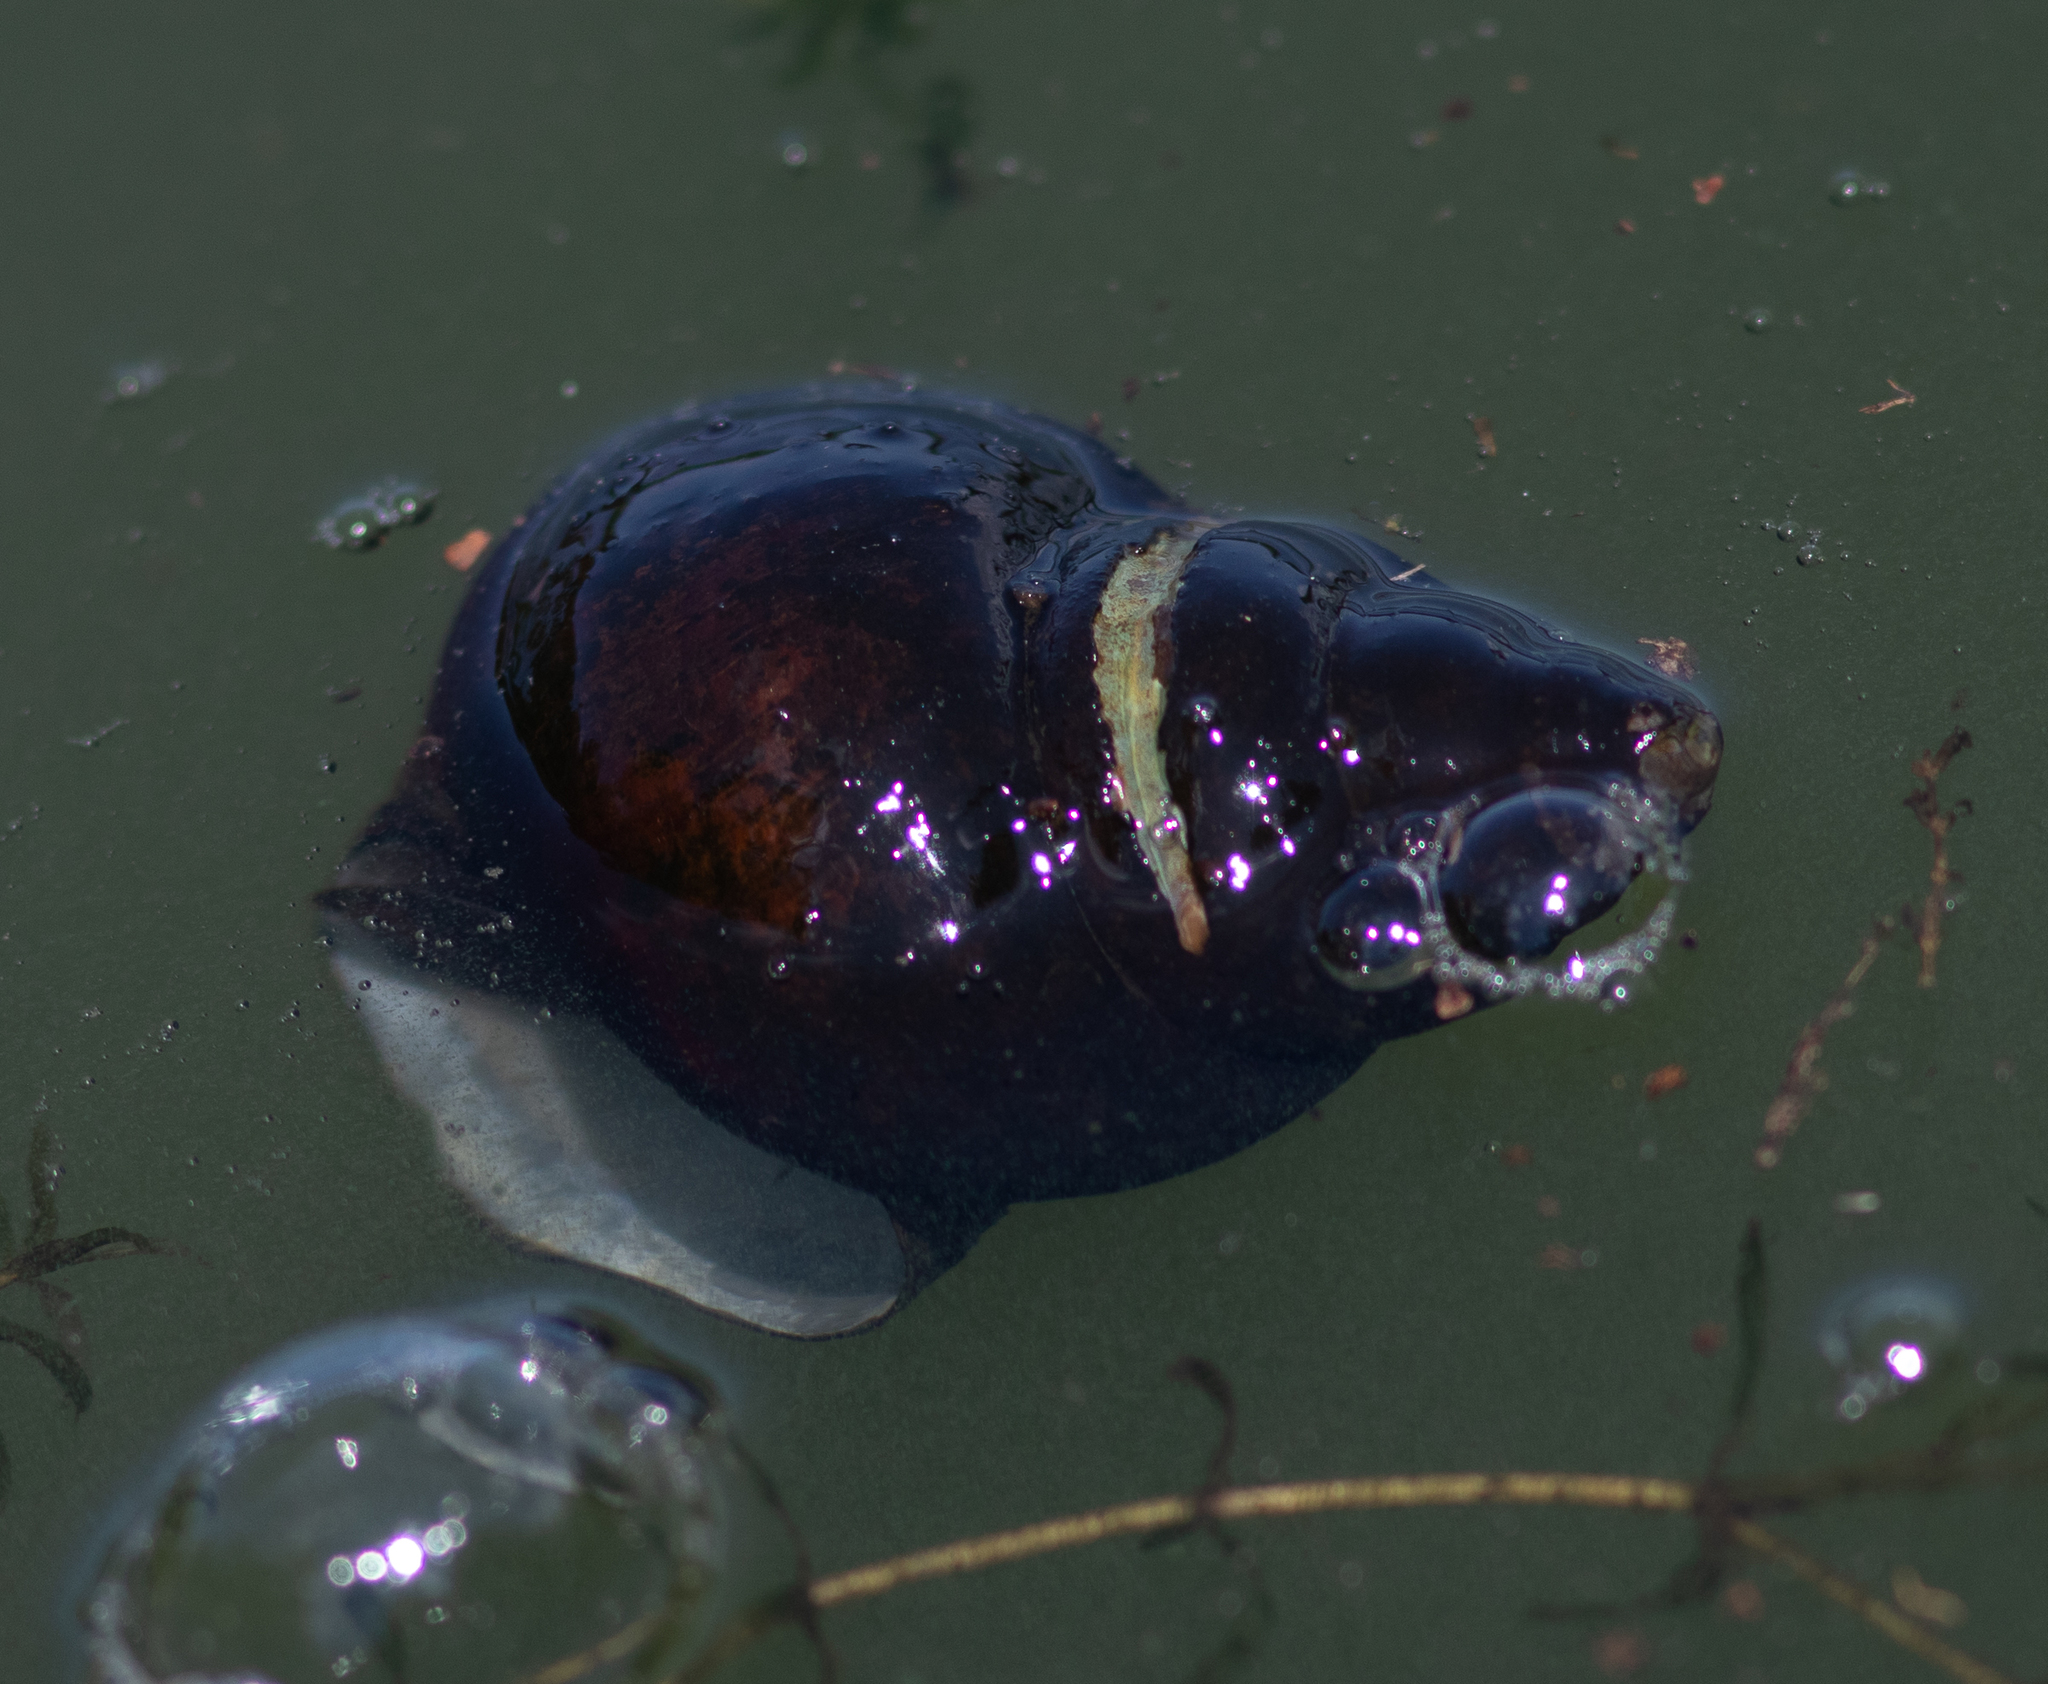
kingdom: Animalia
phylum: Mollusca
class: Gastropoda
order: Architaenioglossa
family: Viviparidae
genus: Cipangopaludina
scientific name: Cipangopaludina chinensis
